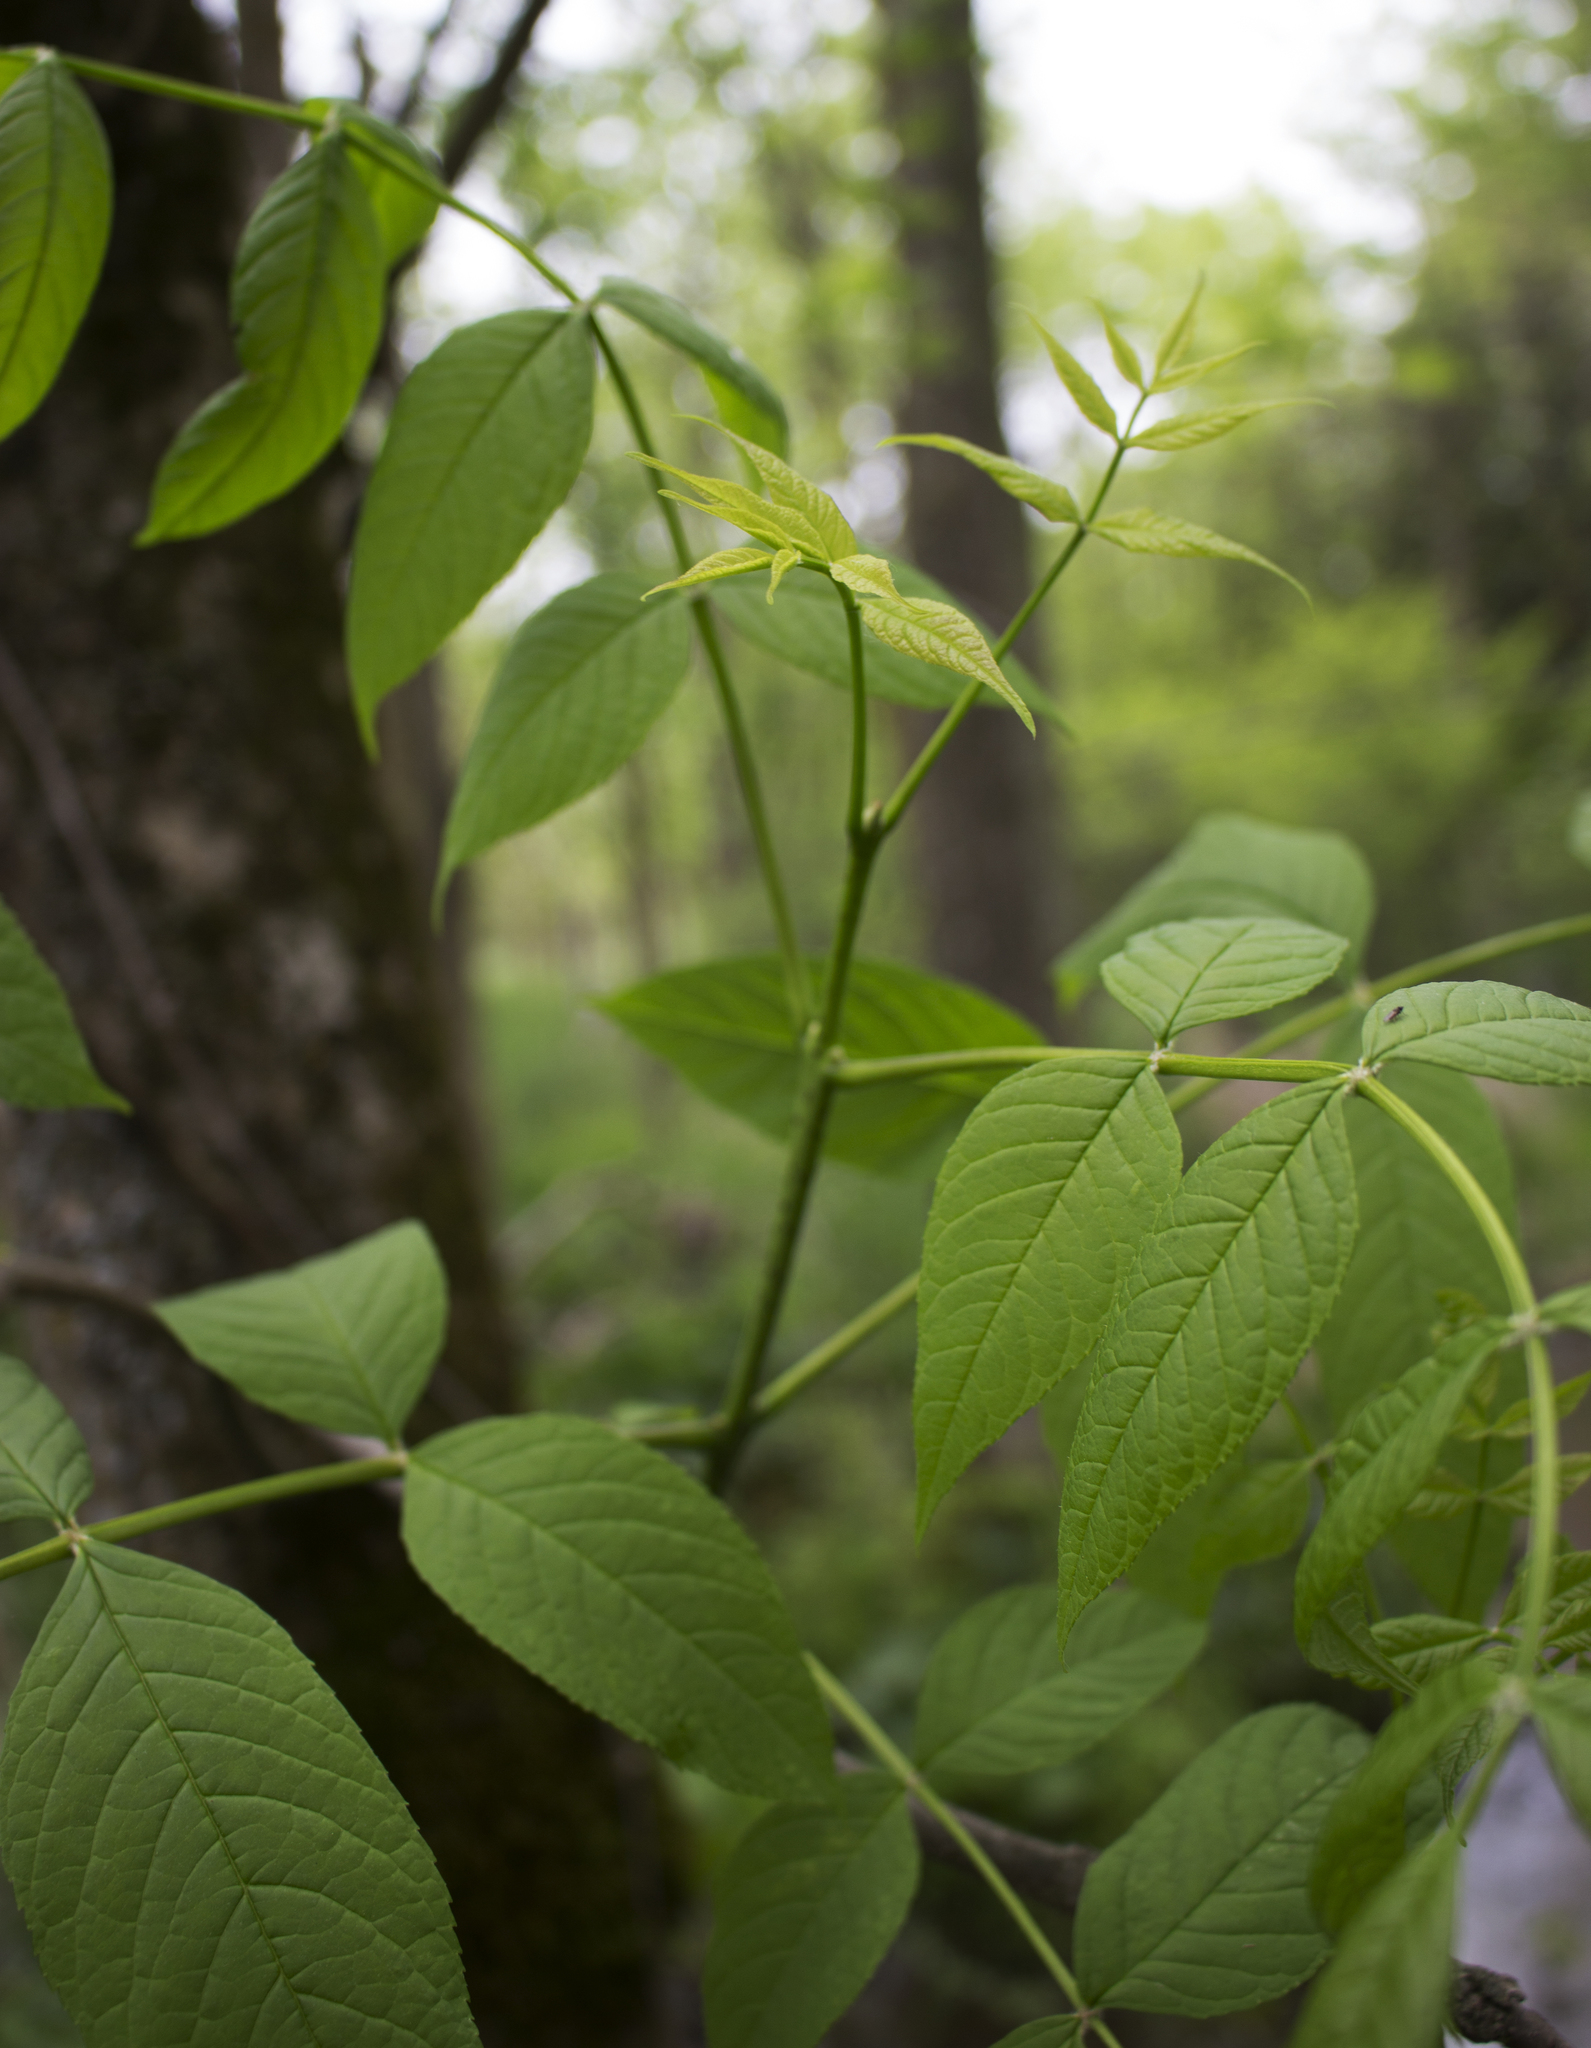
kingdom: Plantae
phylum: Tracheophyta
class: Magnoliopsida
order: Lamiales
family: Oleaceae
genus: Fraxinus
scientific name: Fraxinus nigra
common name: Black ash
